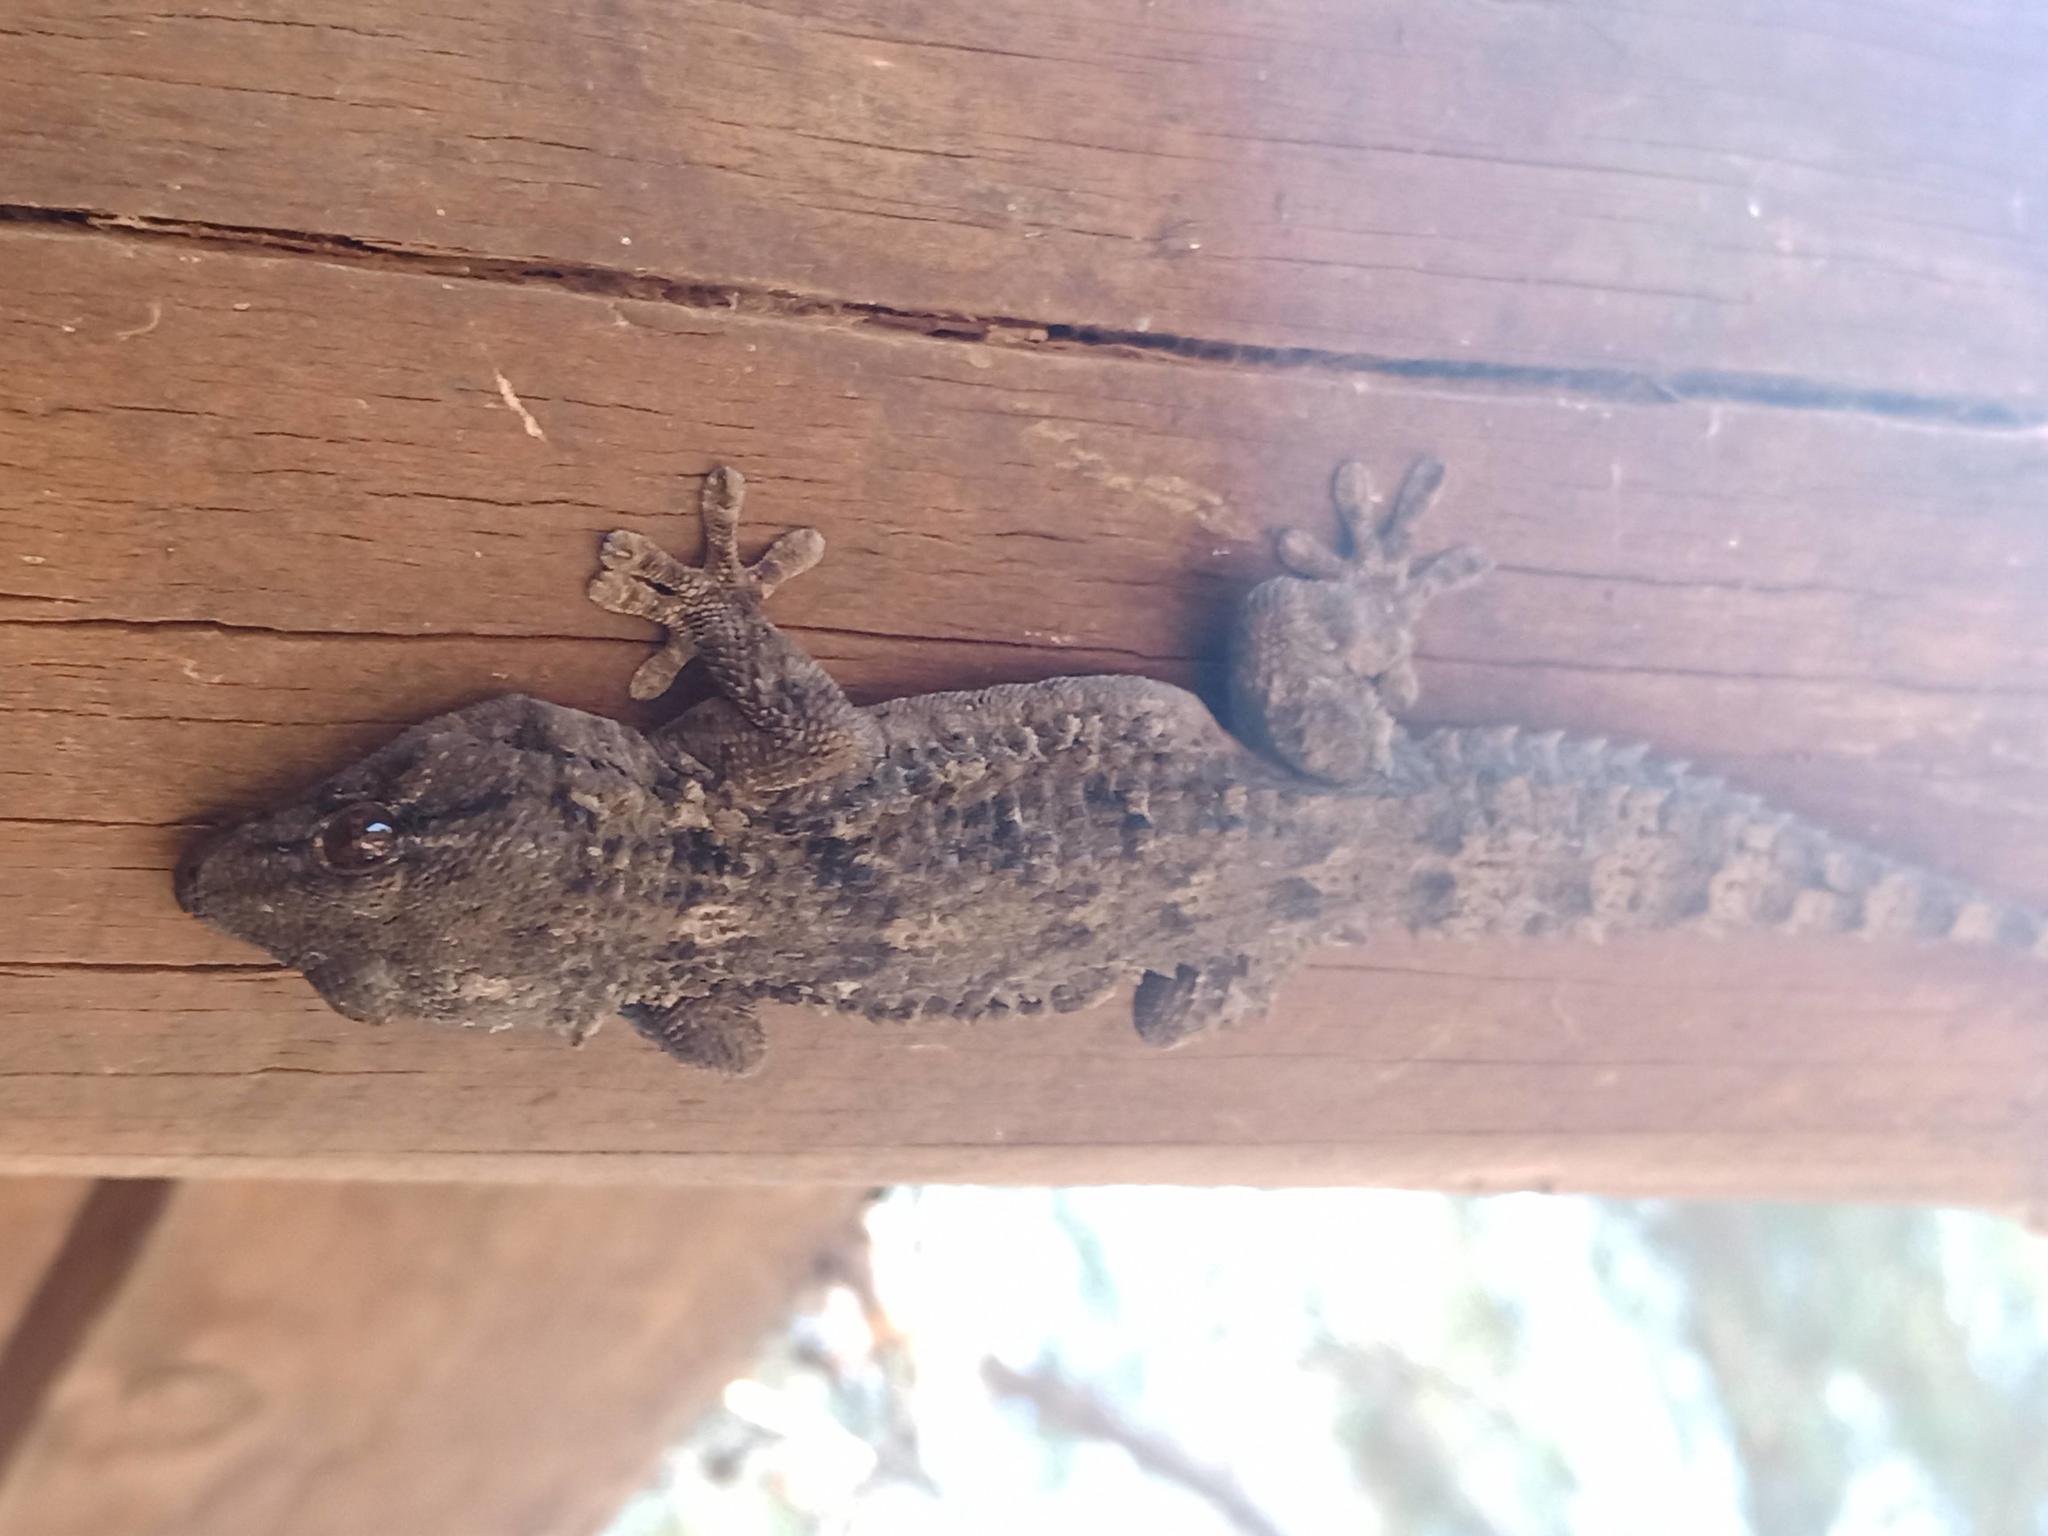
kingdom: Animalia
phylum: Chordata
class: Squamata
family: Phyllodactylidae
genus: Tarentola
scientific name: Tarentola angustimentalis
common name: East canary gecko
